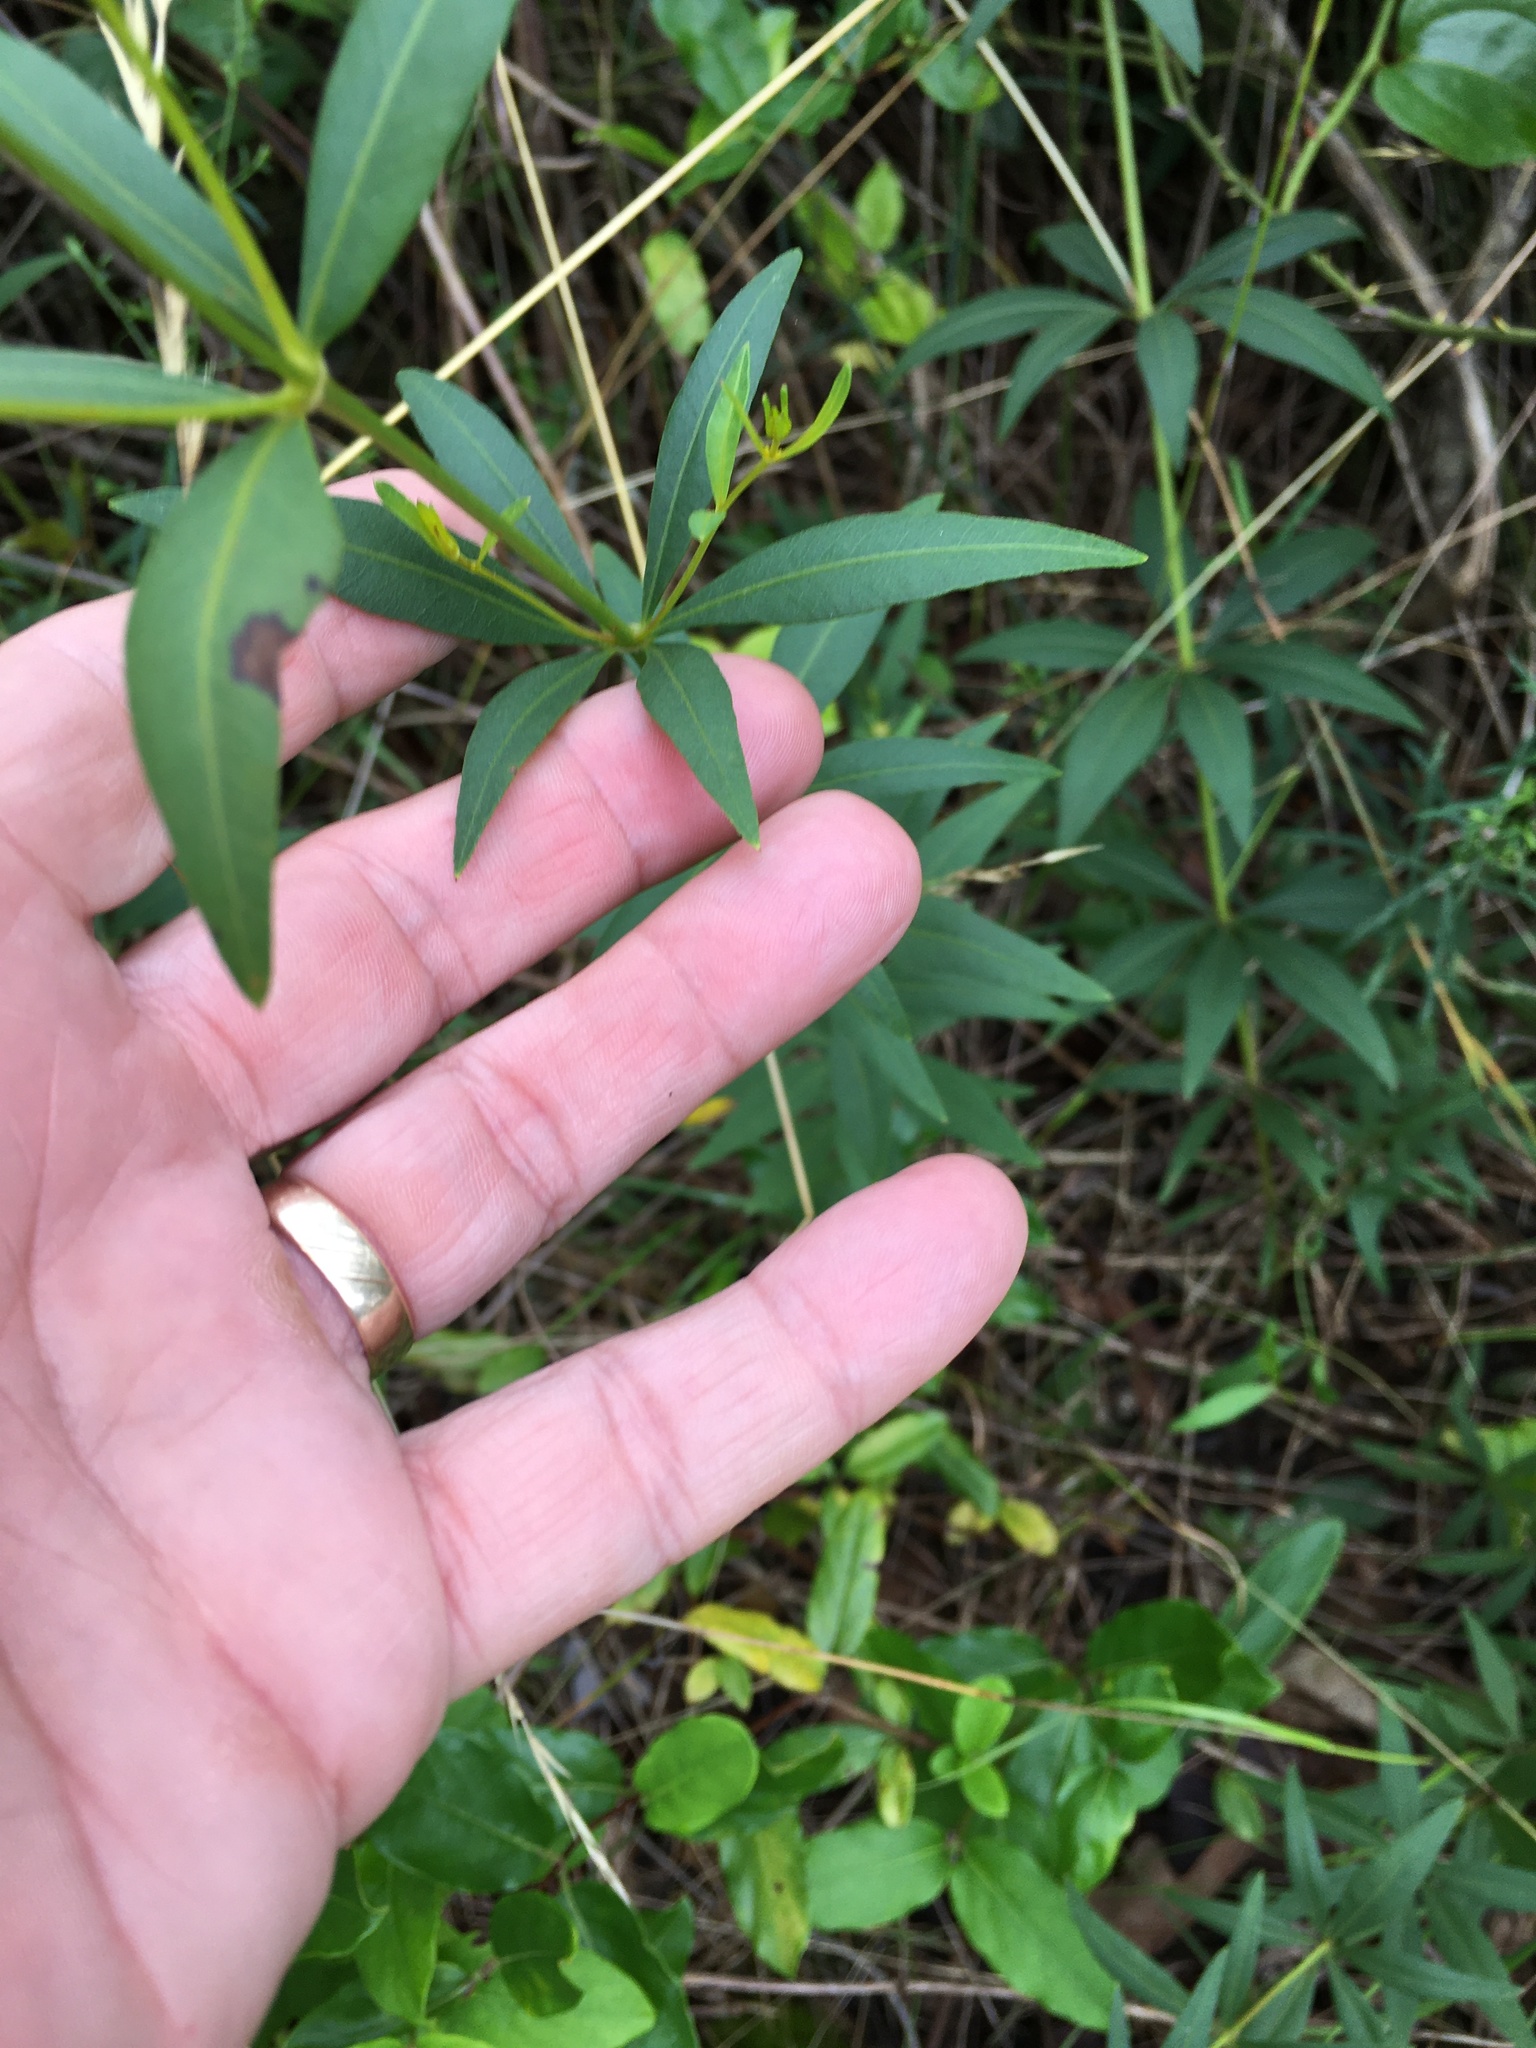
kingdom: Plantae
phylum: Tracheophyta
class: Magnoliopsida
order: Asterales
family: Asteraceae
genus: Coreopsis
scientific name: Coreopsis major
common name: Forest tickseed
